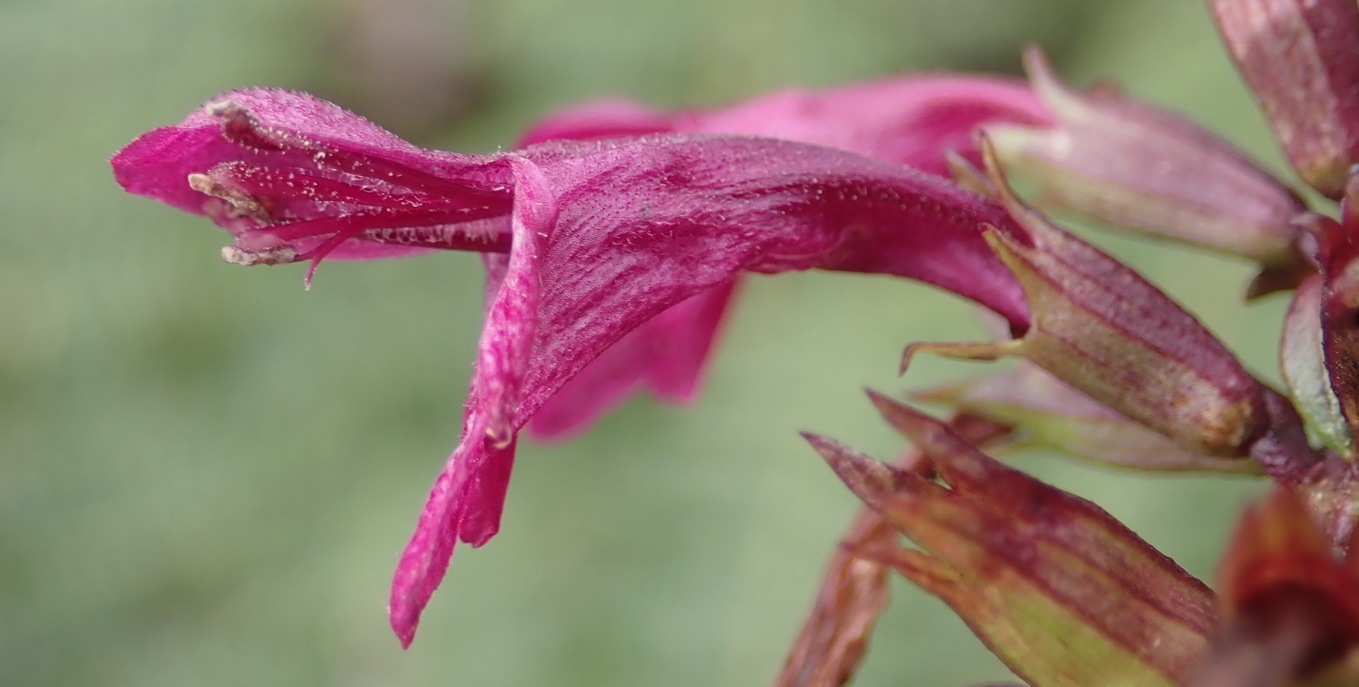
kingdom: Plantae
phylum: Tracheophyta
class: Magnoliopsida
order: Lamiales
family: Lamiaceae
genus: Stachys
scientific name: Stachys thunbergii
